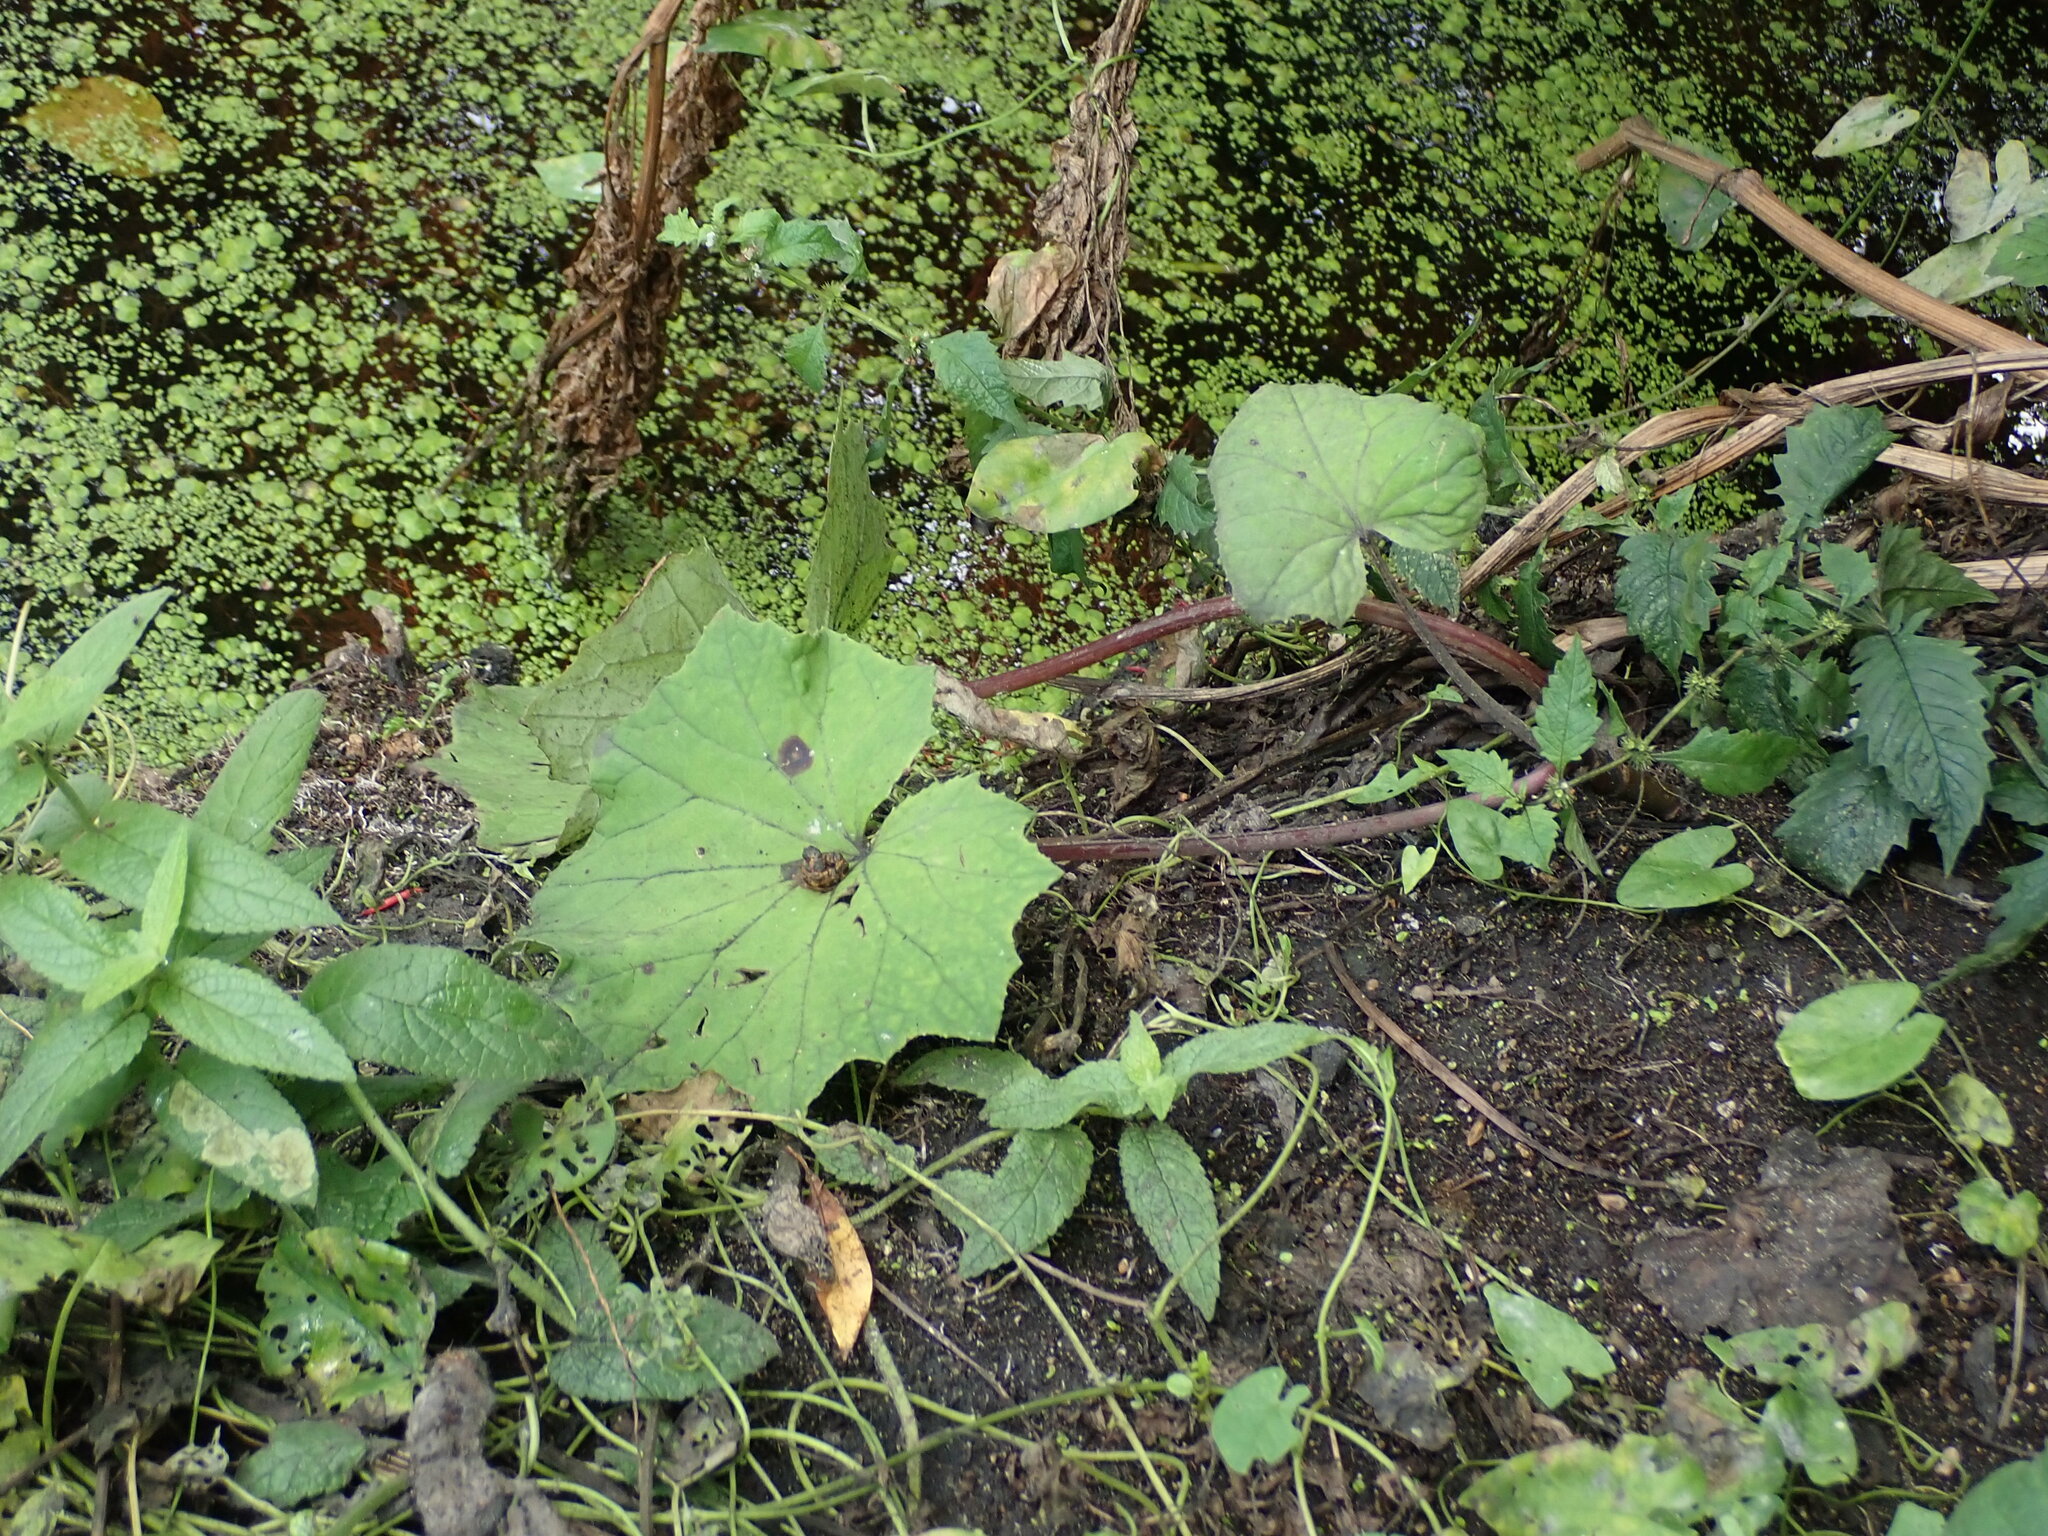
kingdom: Plantae
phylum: Tracheophyta
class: Magnoliopsida
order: Asterales
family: Asteraceae
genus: Tussilago
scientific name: Tussilago farfara
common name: Coltsfoot
